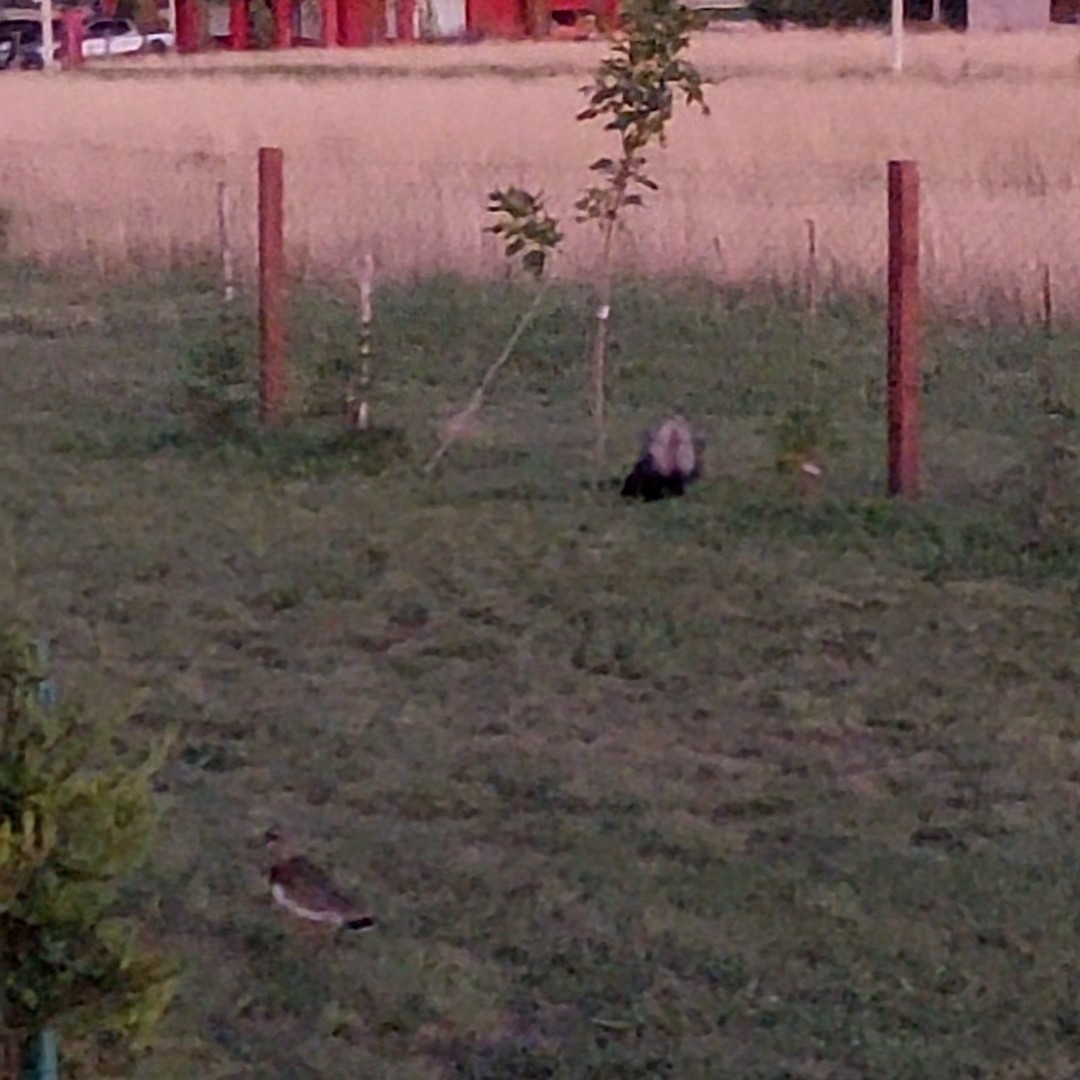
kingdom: Animalia
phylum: Chordata
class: Mammalia
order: Carnivora
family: Mephitidae
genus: Conepatus
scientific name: Conepatus chinga
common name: Molina's hog-nosed skunk
